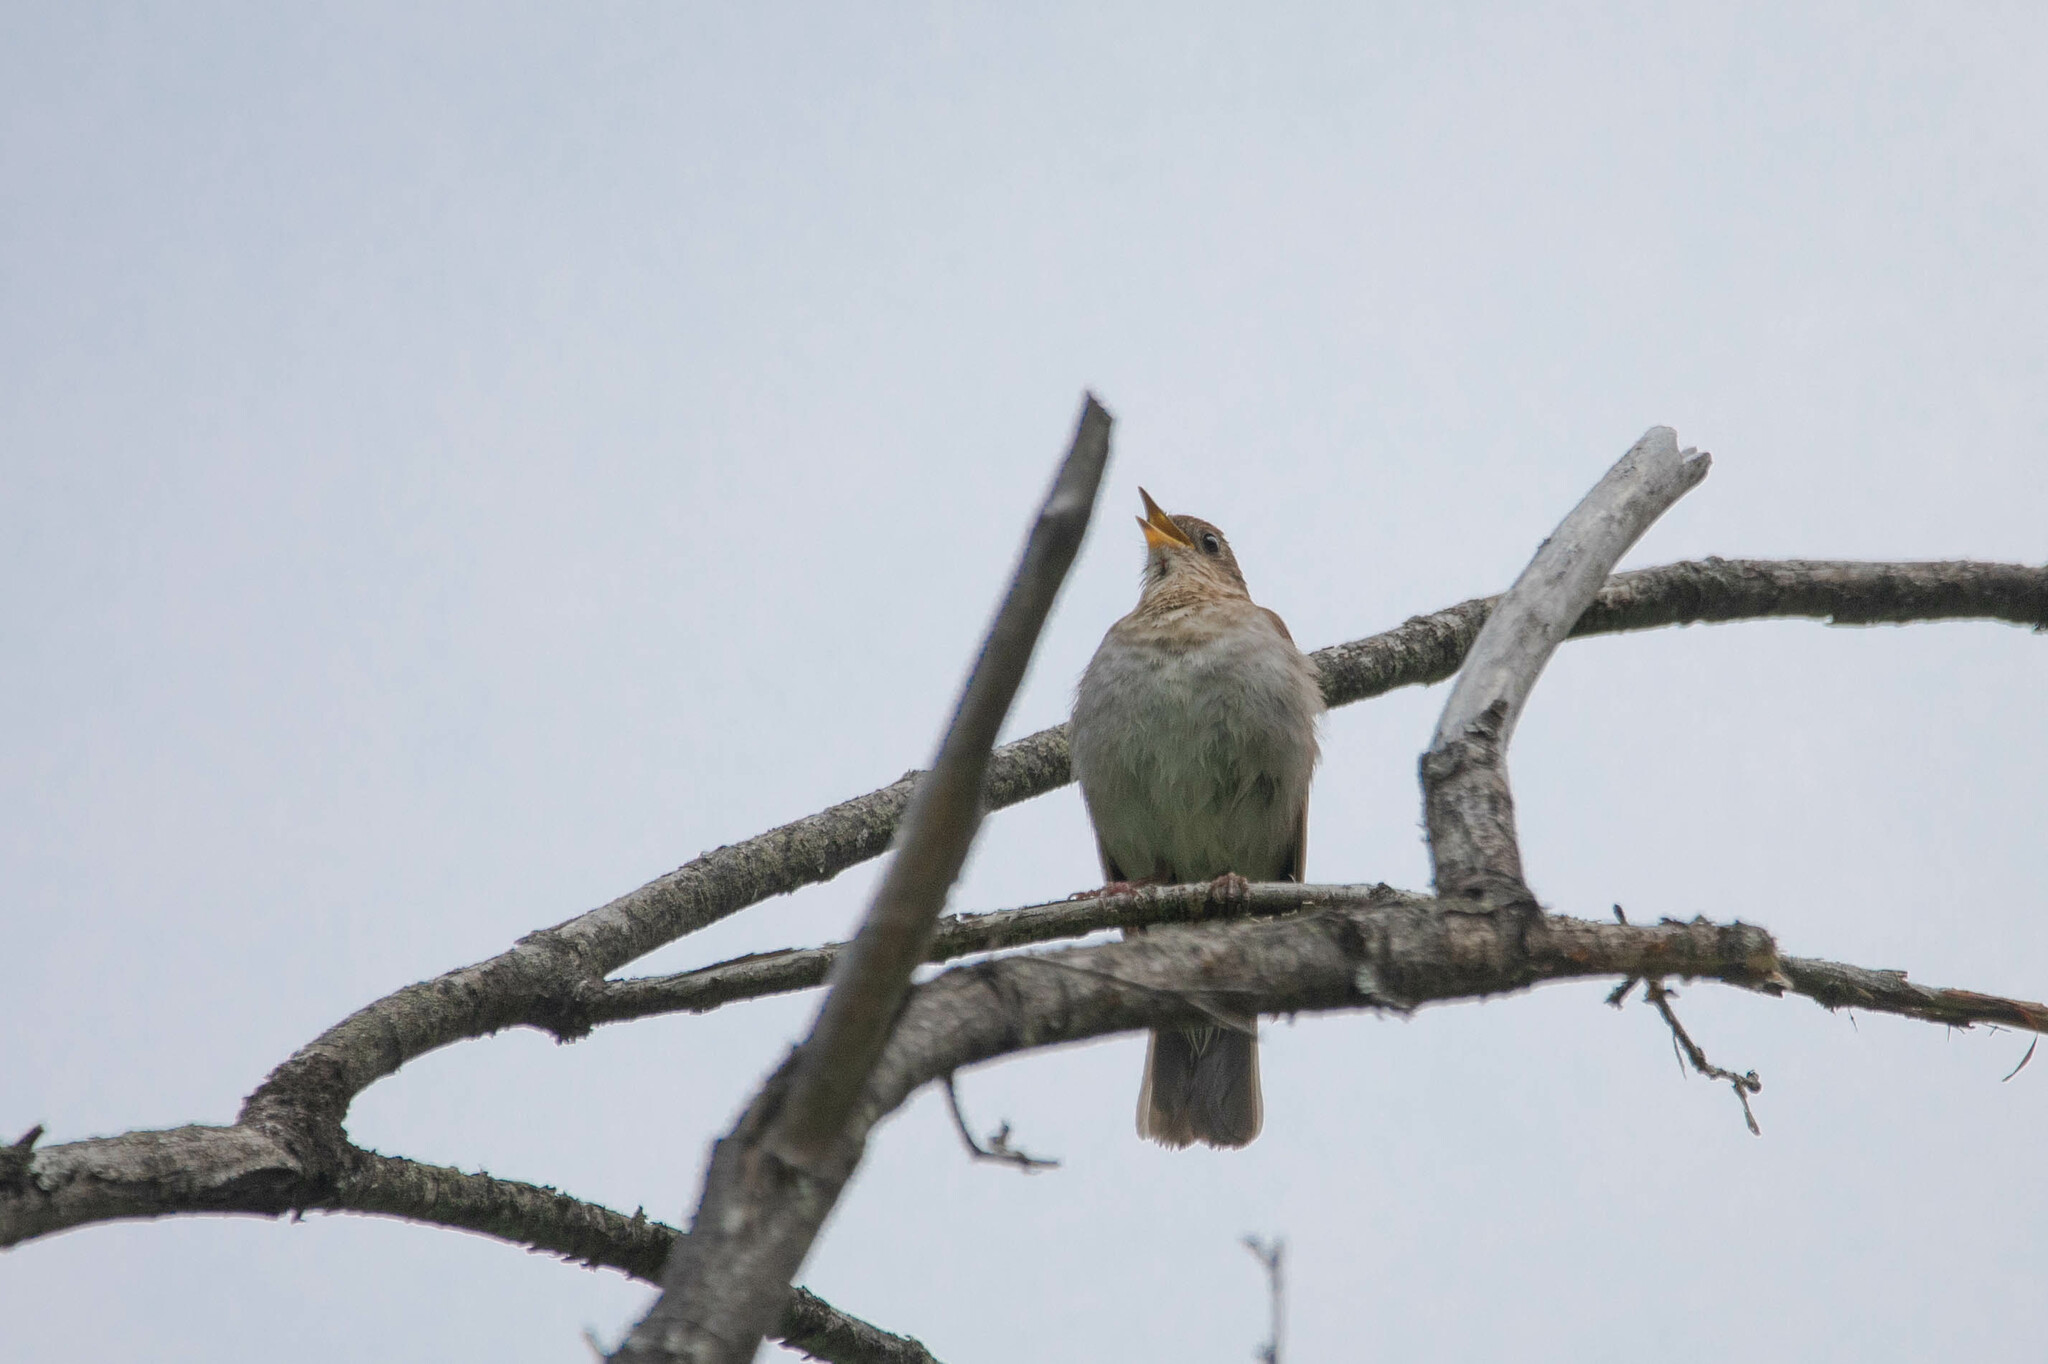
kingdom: Animalia
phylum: Chordata
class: Aves
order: Passeriformes
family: Turdidae
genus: Catharus
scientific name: Catharus fuscescens
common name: Veery
